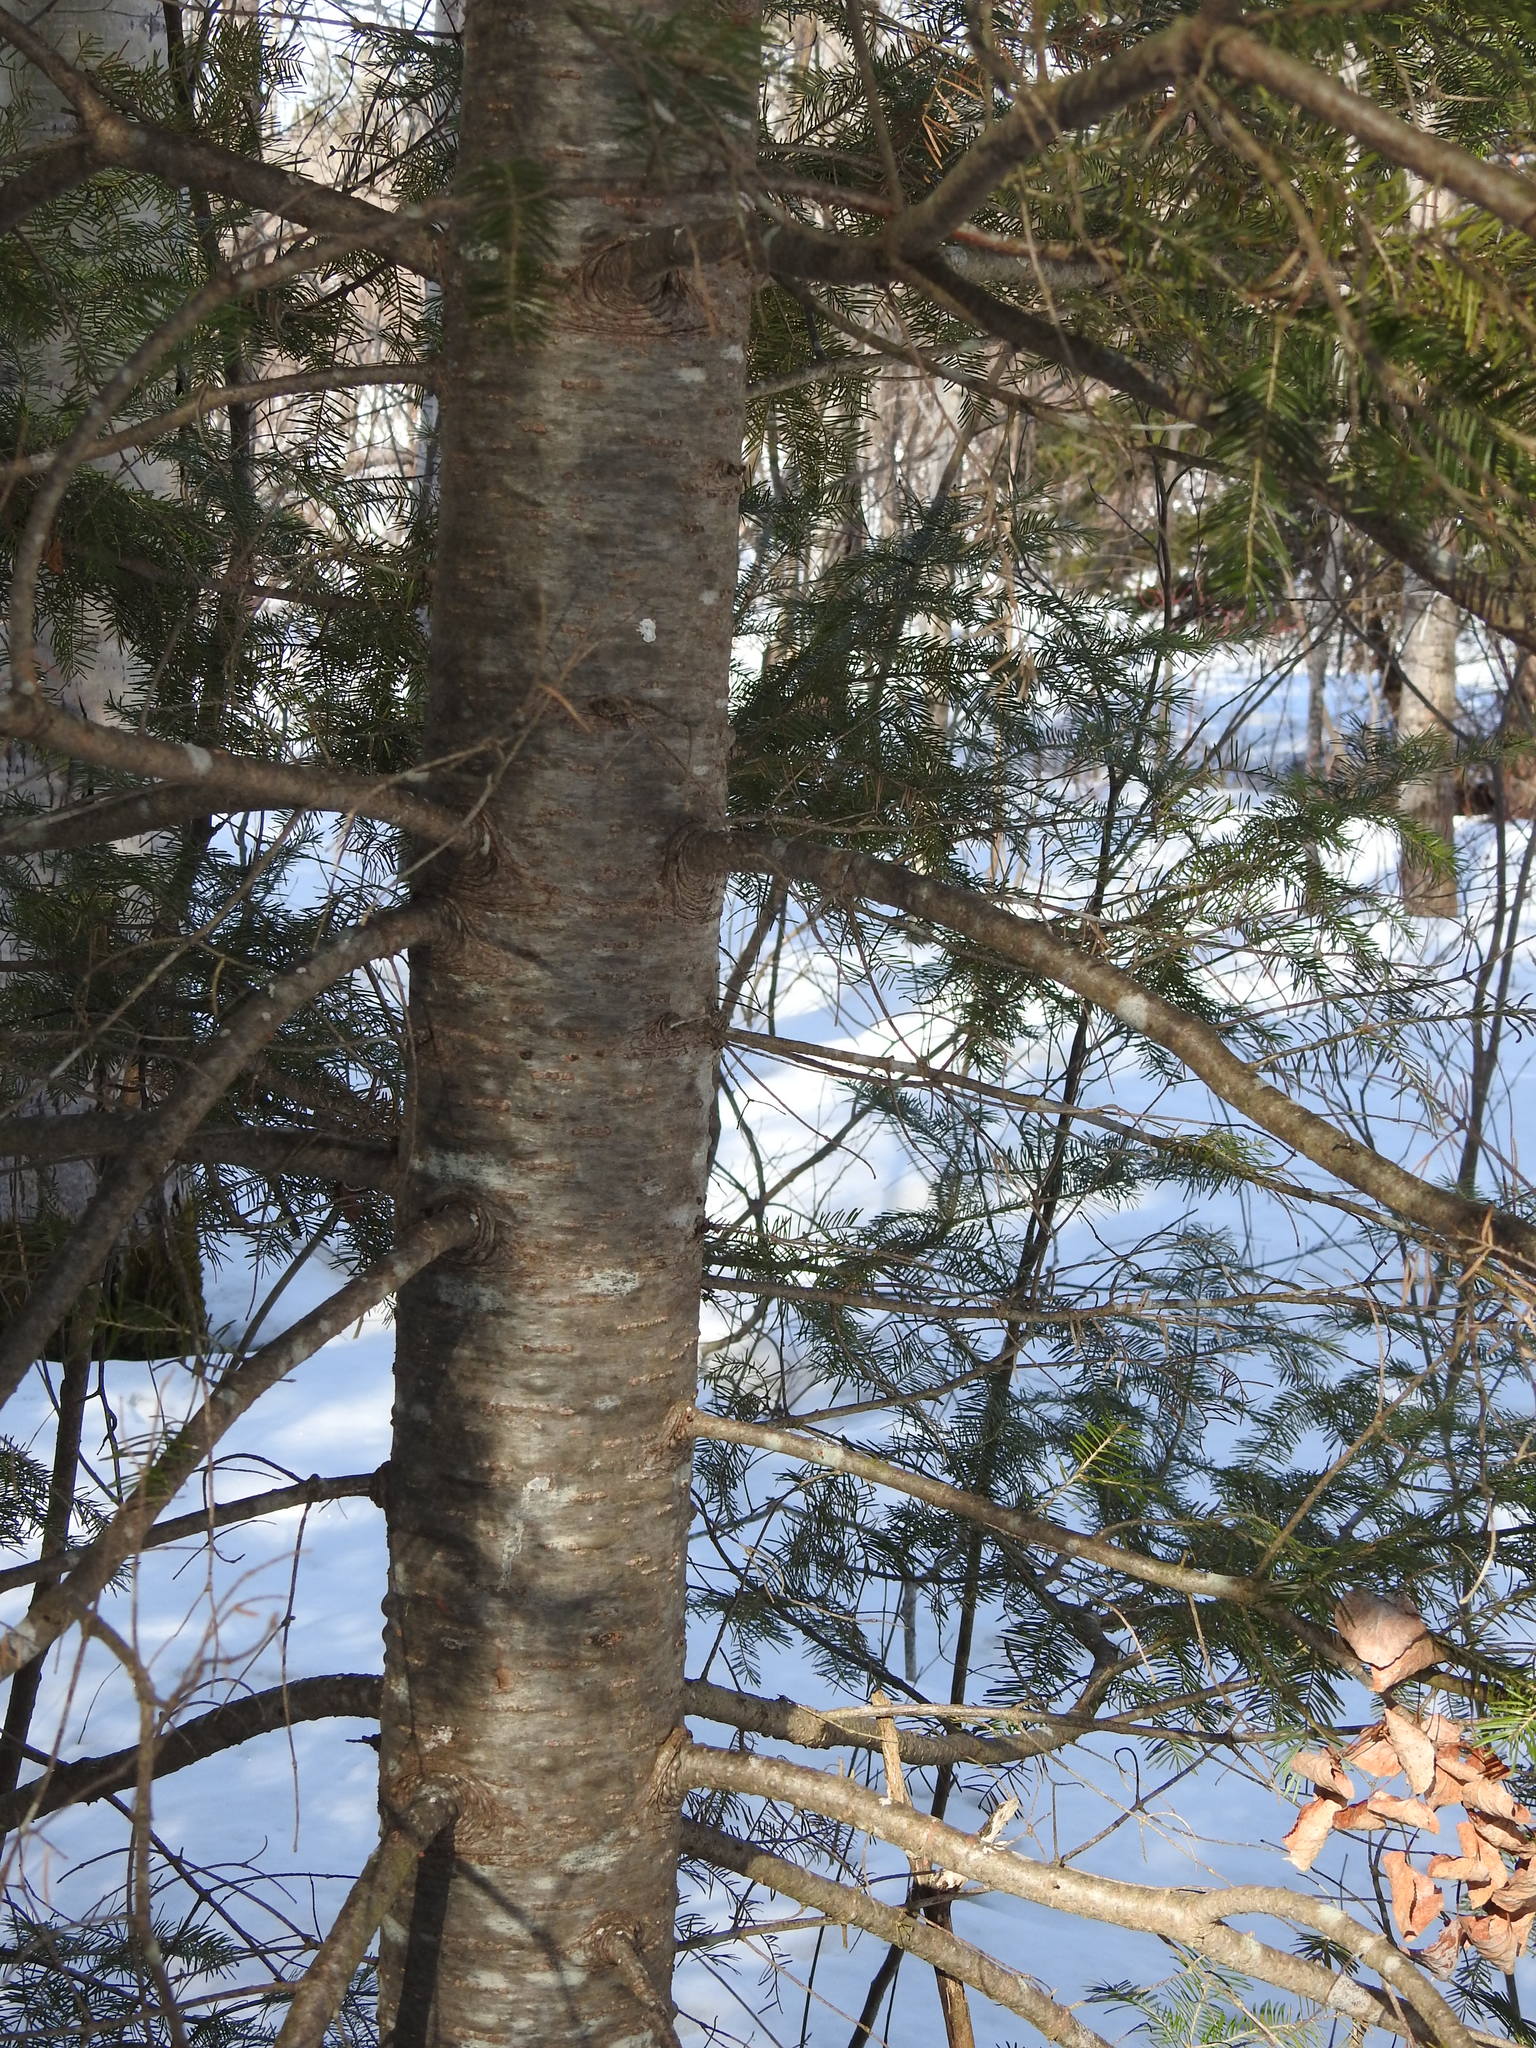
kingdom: Plantae
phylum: Tracheophyta
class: Pinopsida
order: Pinales
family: Pinaceae
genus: Abies
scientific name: Abies balsamea
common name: Balsam fir
